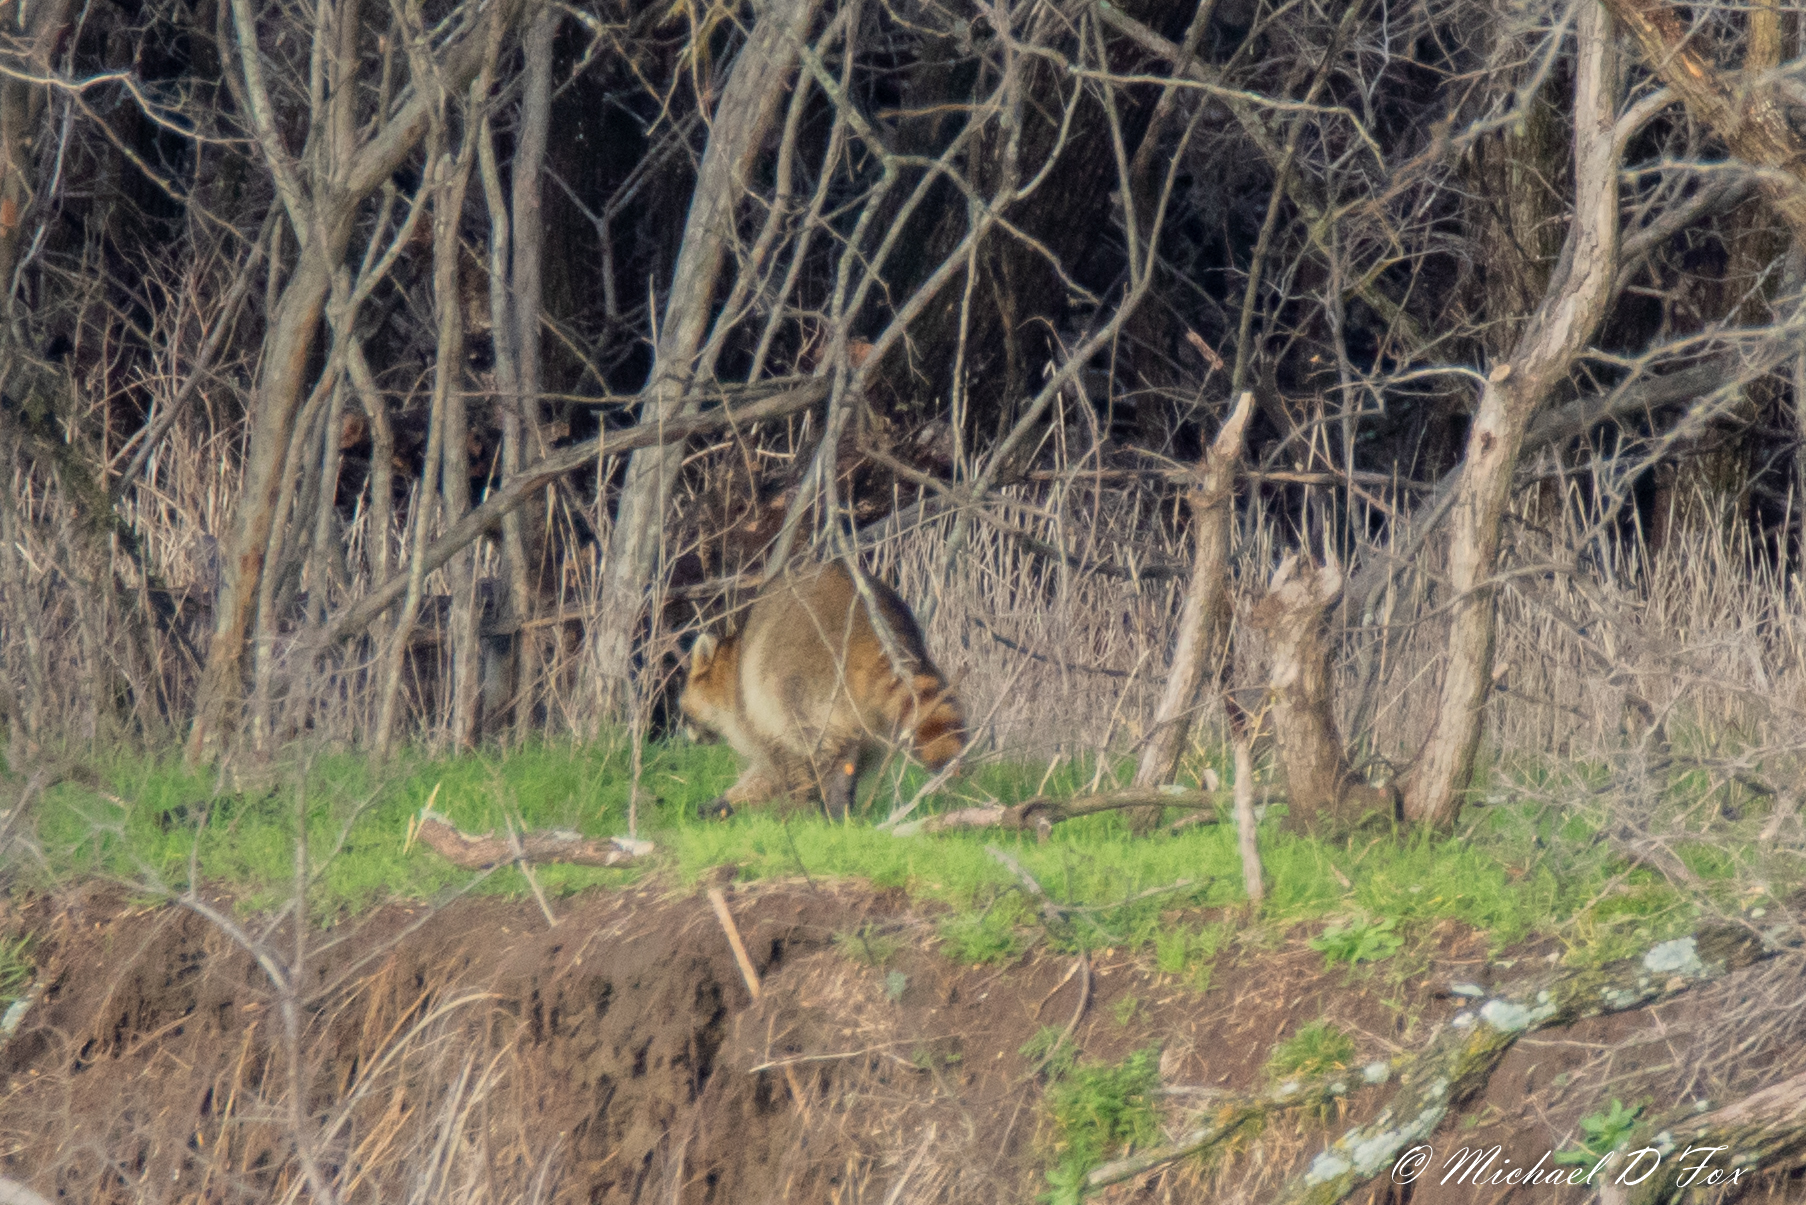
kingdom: Animalia
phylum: Chordata
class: Mammalia
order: Carnivora
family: Procyonidae
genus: Procyon
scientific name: Procyon lotor
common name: Raccoon
